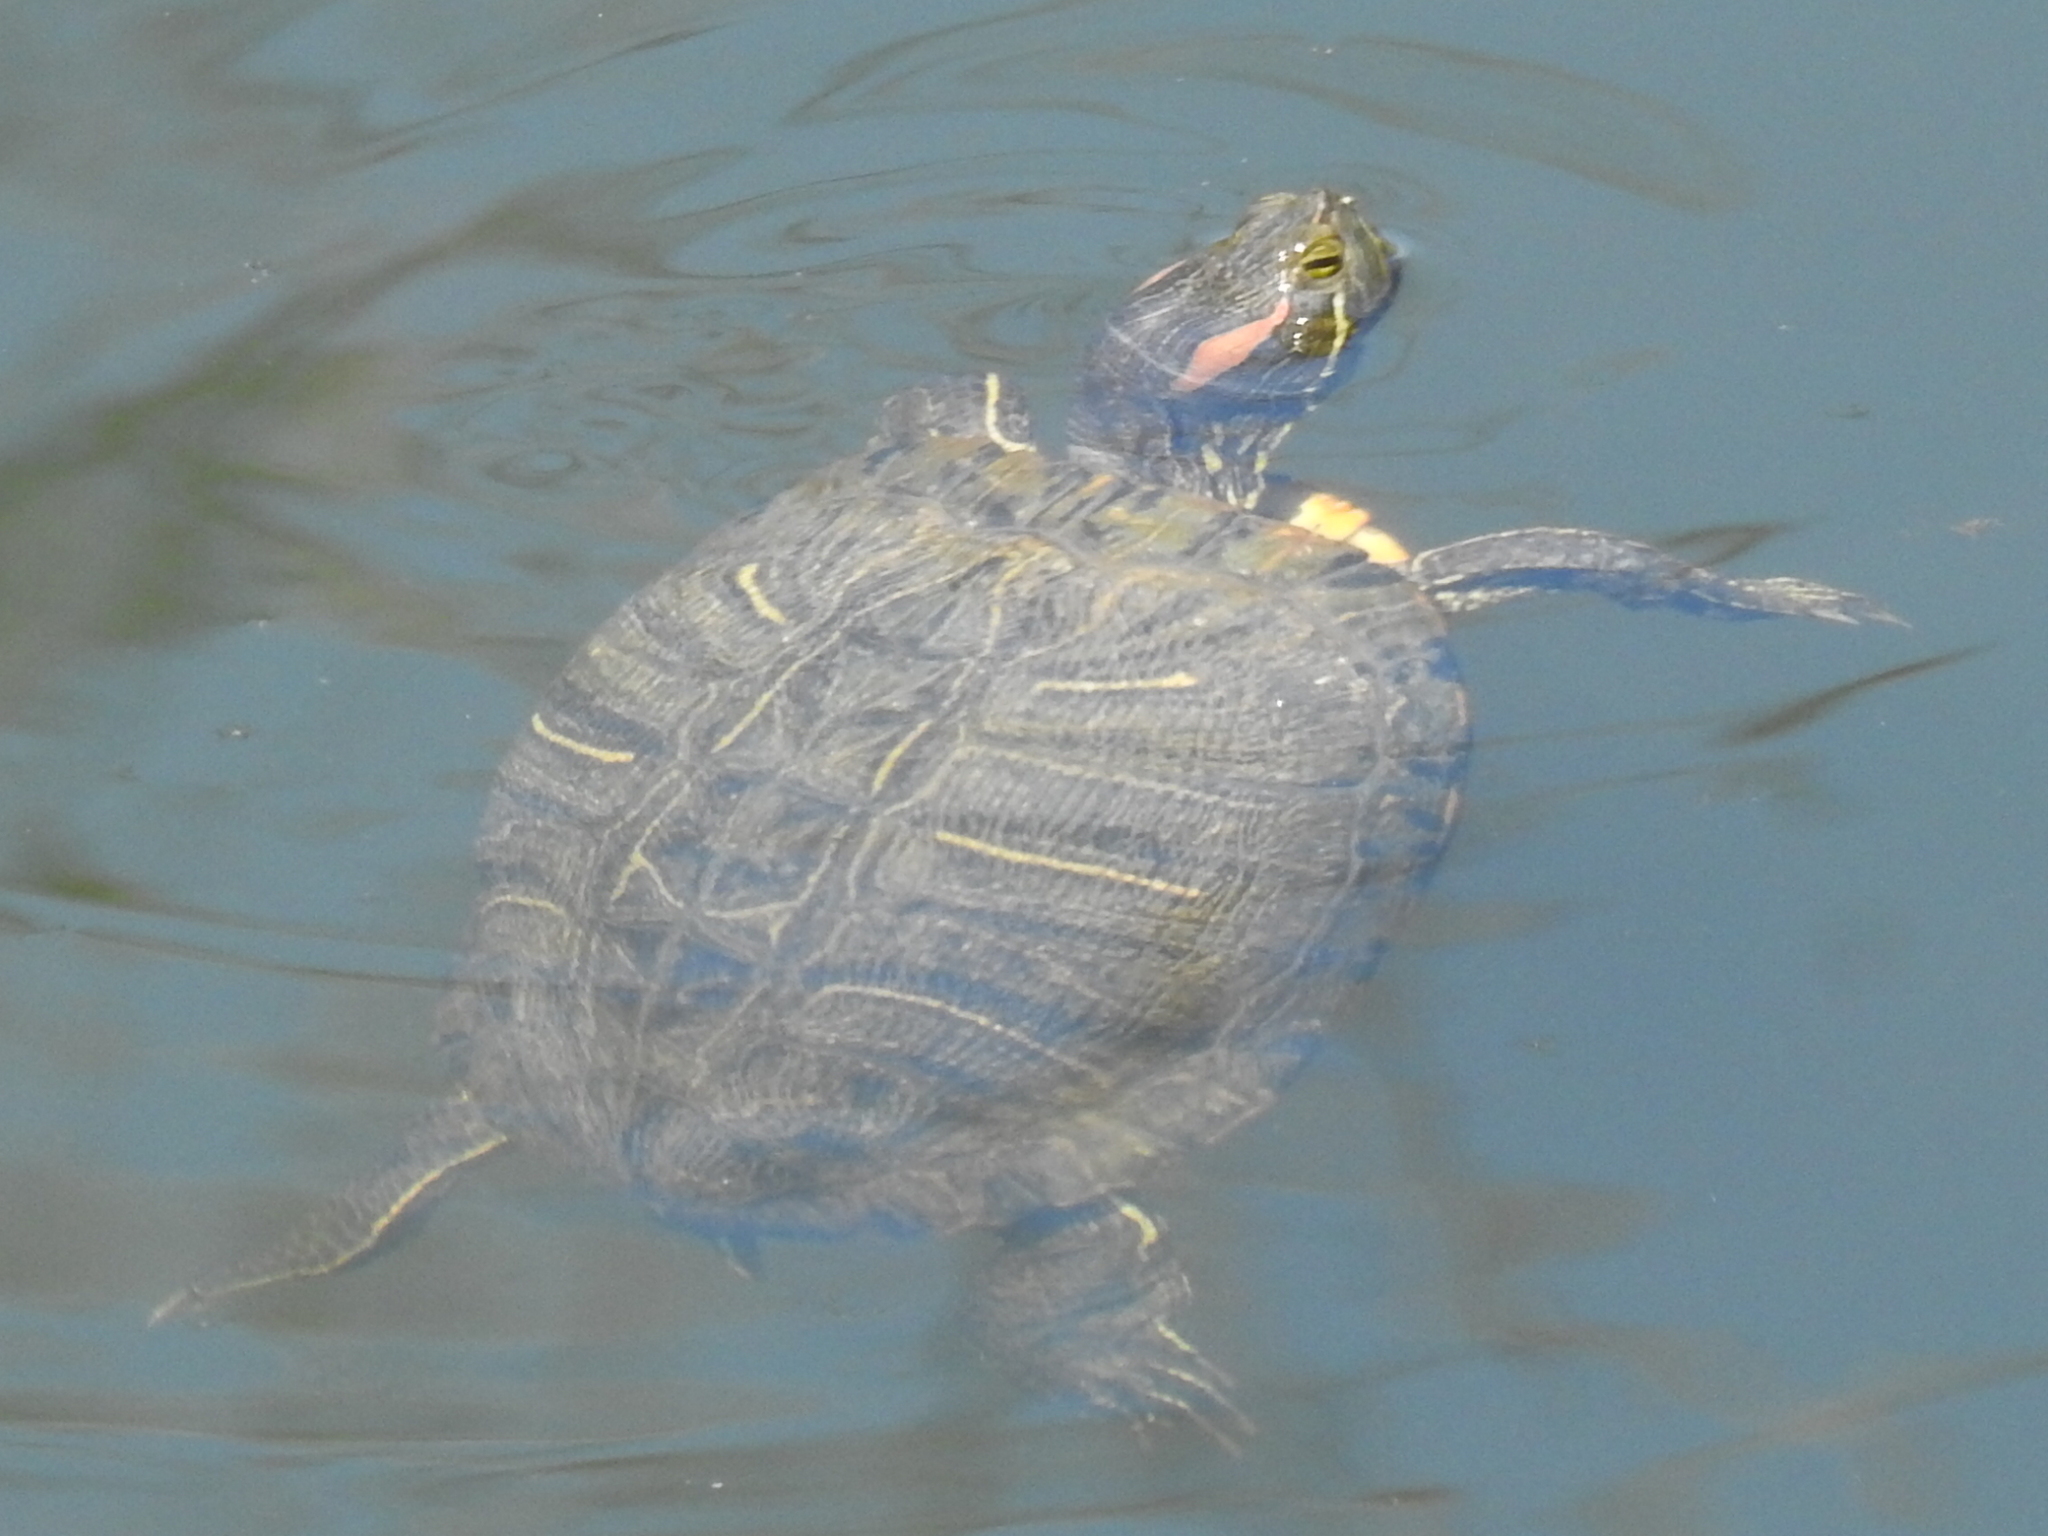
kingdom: Animalia
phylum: Chordata
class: Testudines
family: Emydidae
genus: Trachemys
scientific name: Trachemys scripta
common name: Slider
